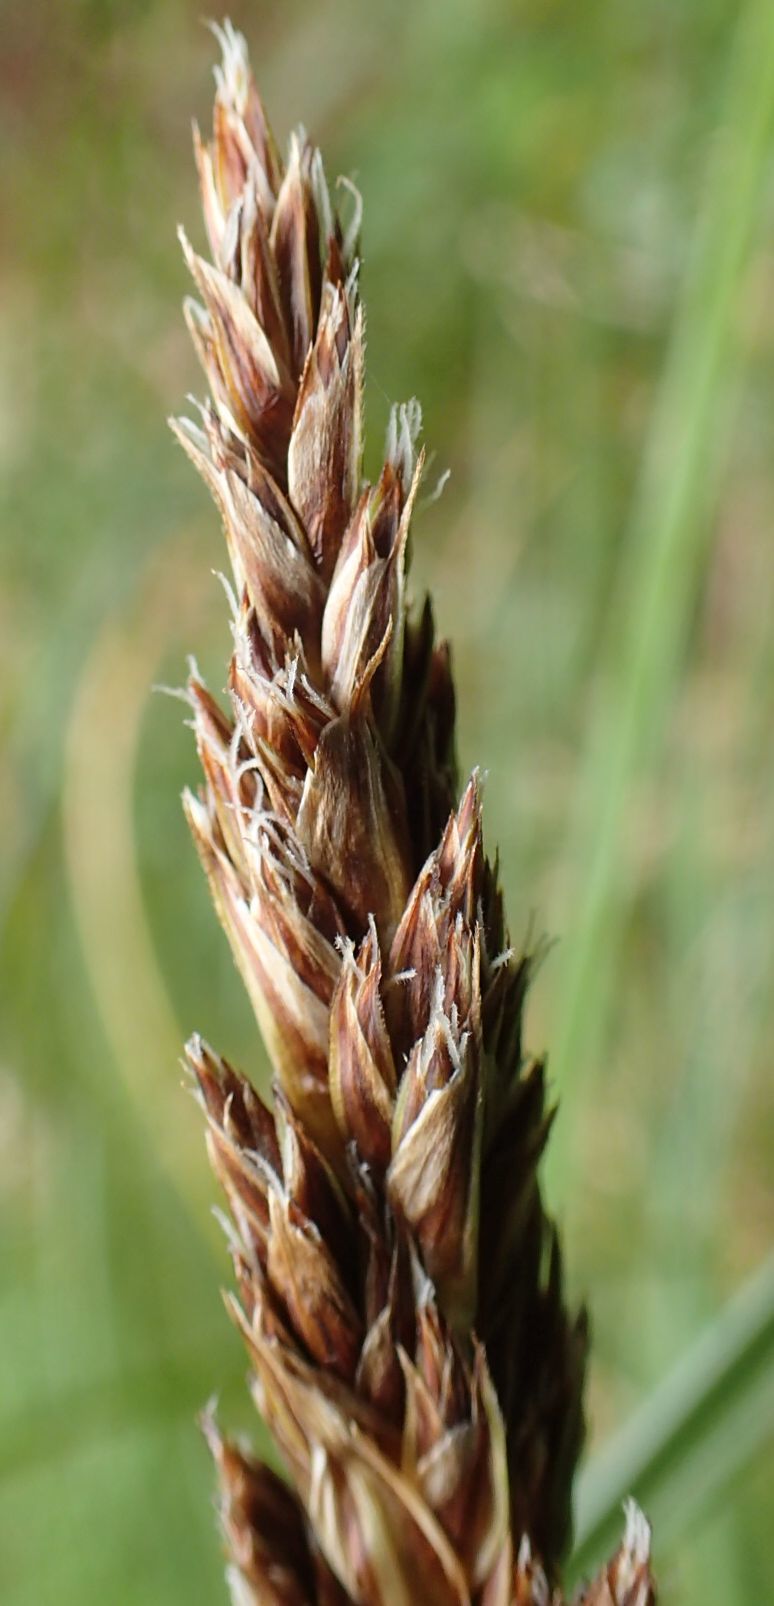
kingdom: Plantae
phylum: Tracheophyta
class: Liliopsida
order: Poales
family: Cyperaceae
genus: Carex
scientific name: Carex forsteri
